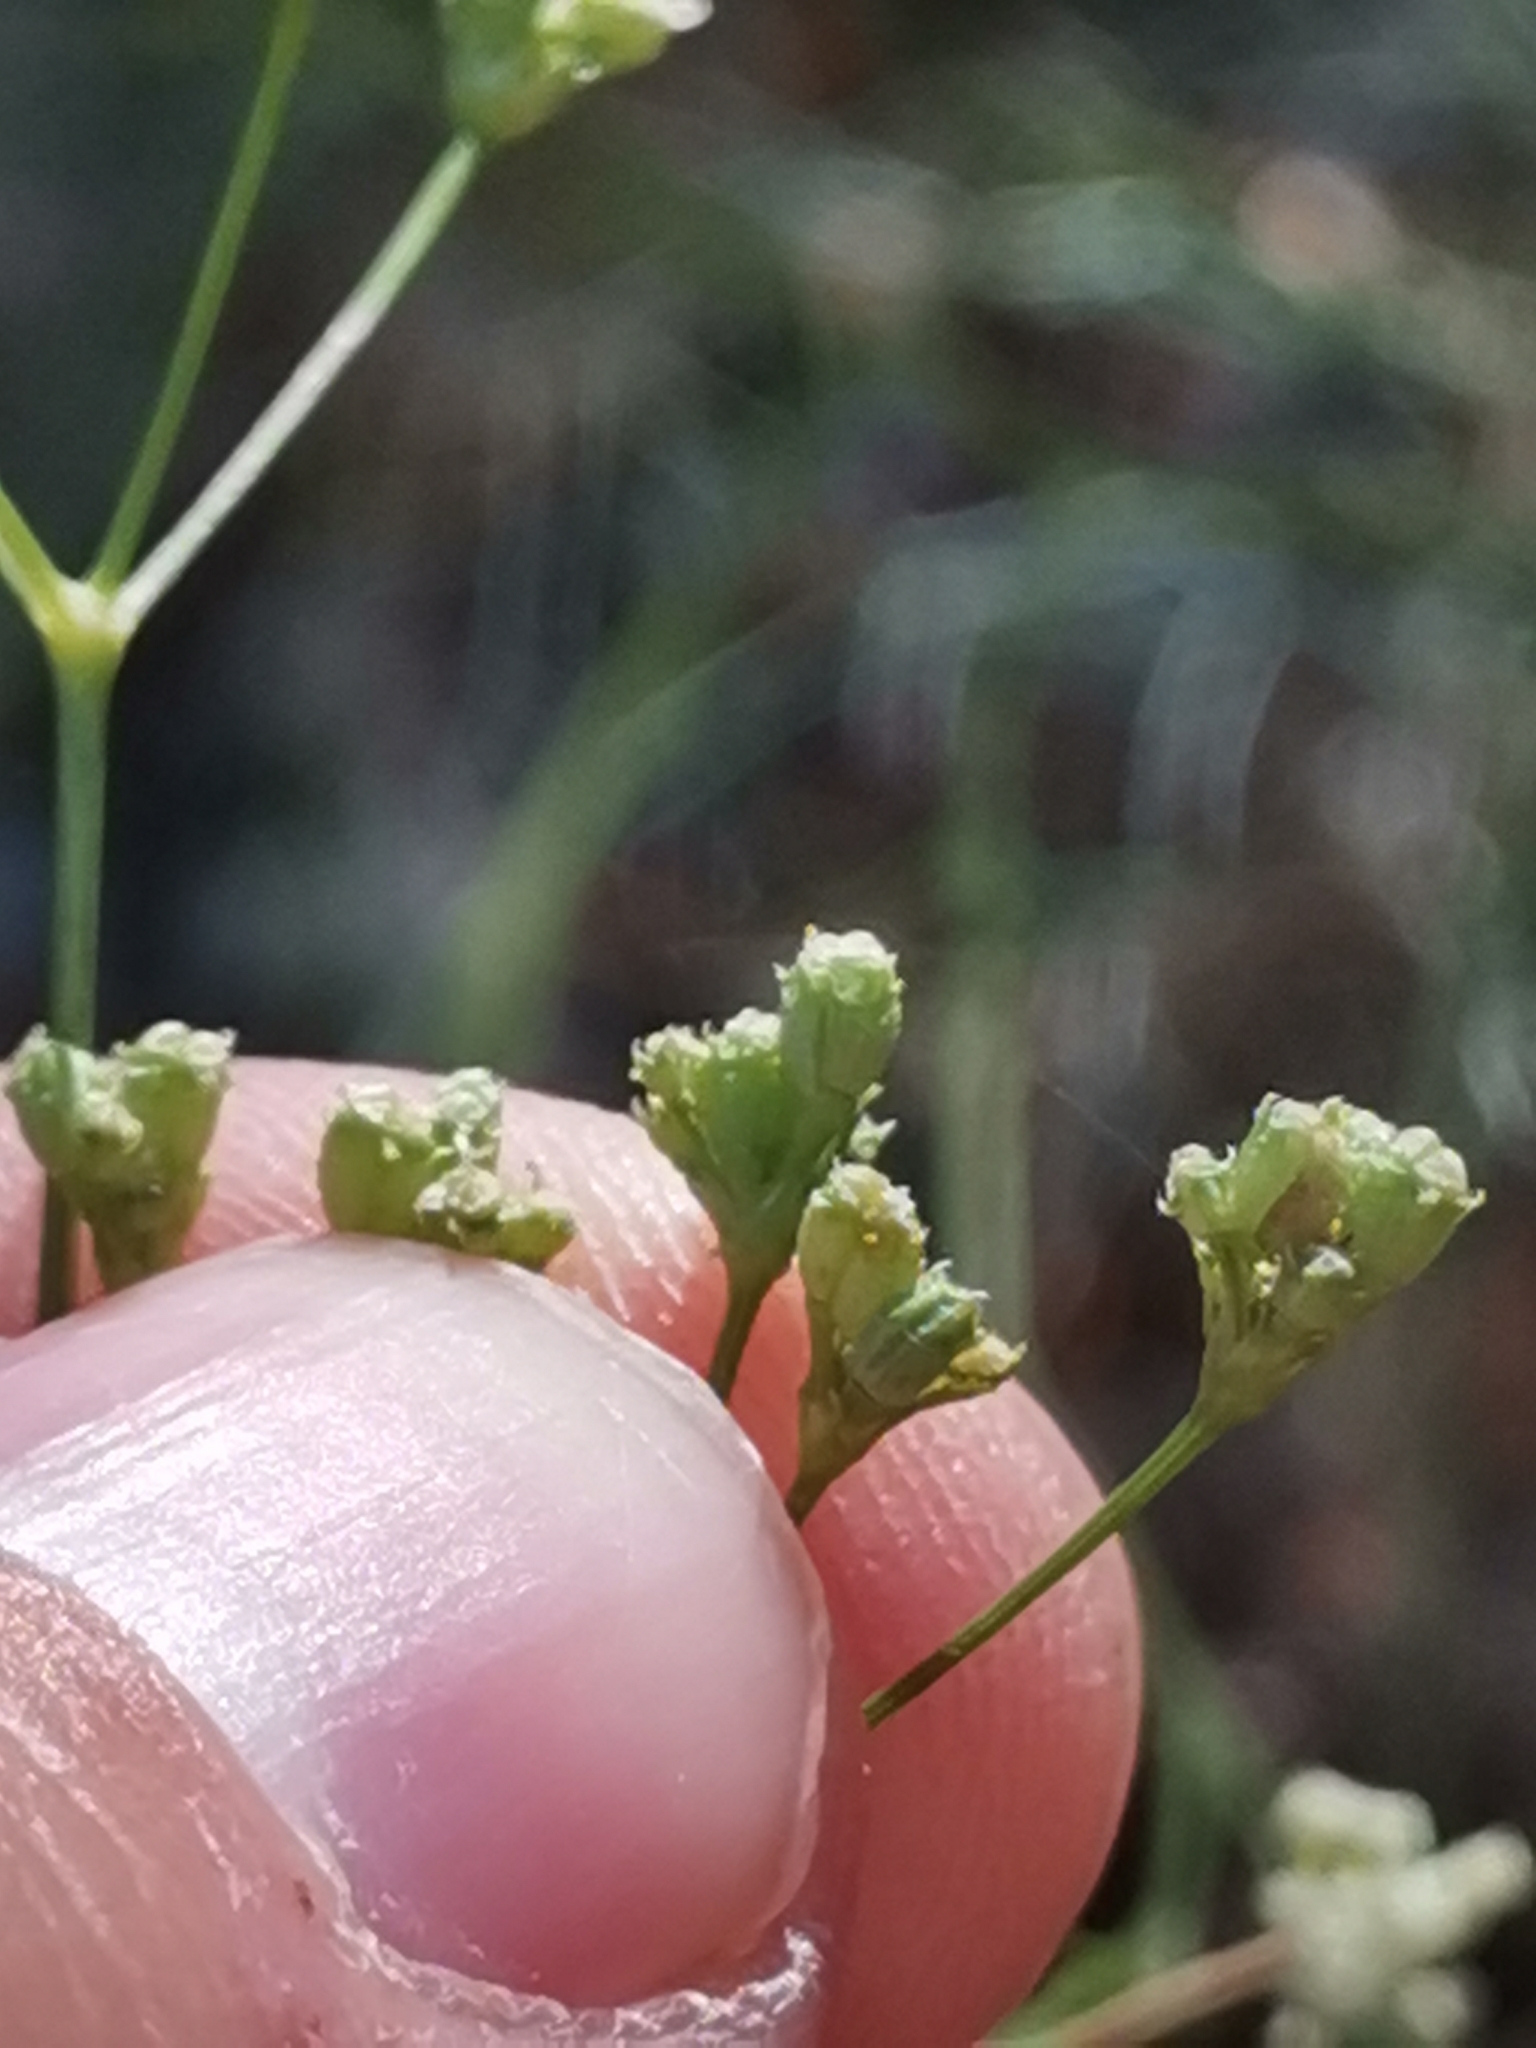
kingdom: Plantae
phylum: Tracheophyta
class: Magnoliopsida
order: Apiales
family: Apiaceae
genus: Seseli
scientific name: Seseli gouanii
